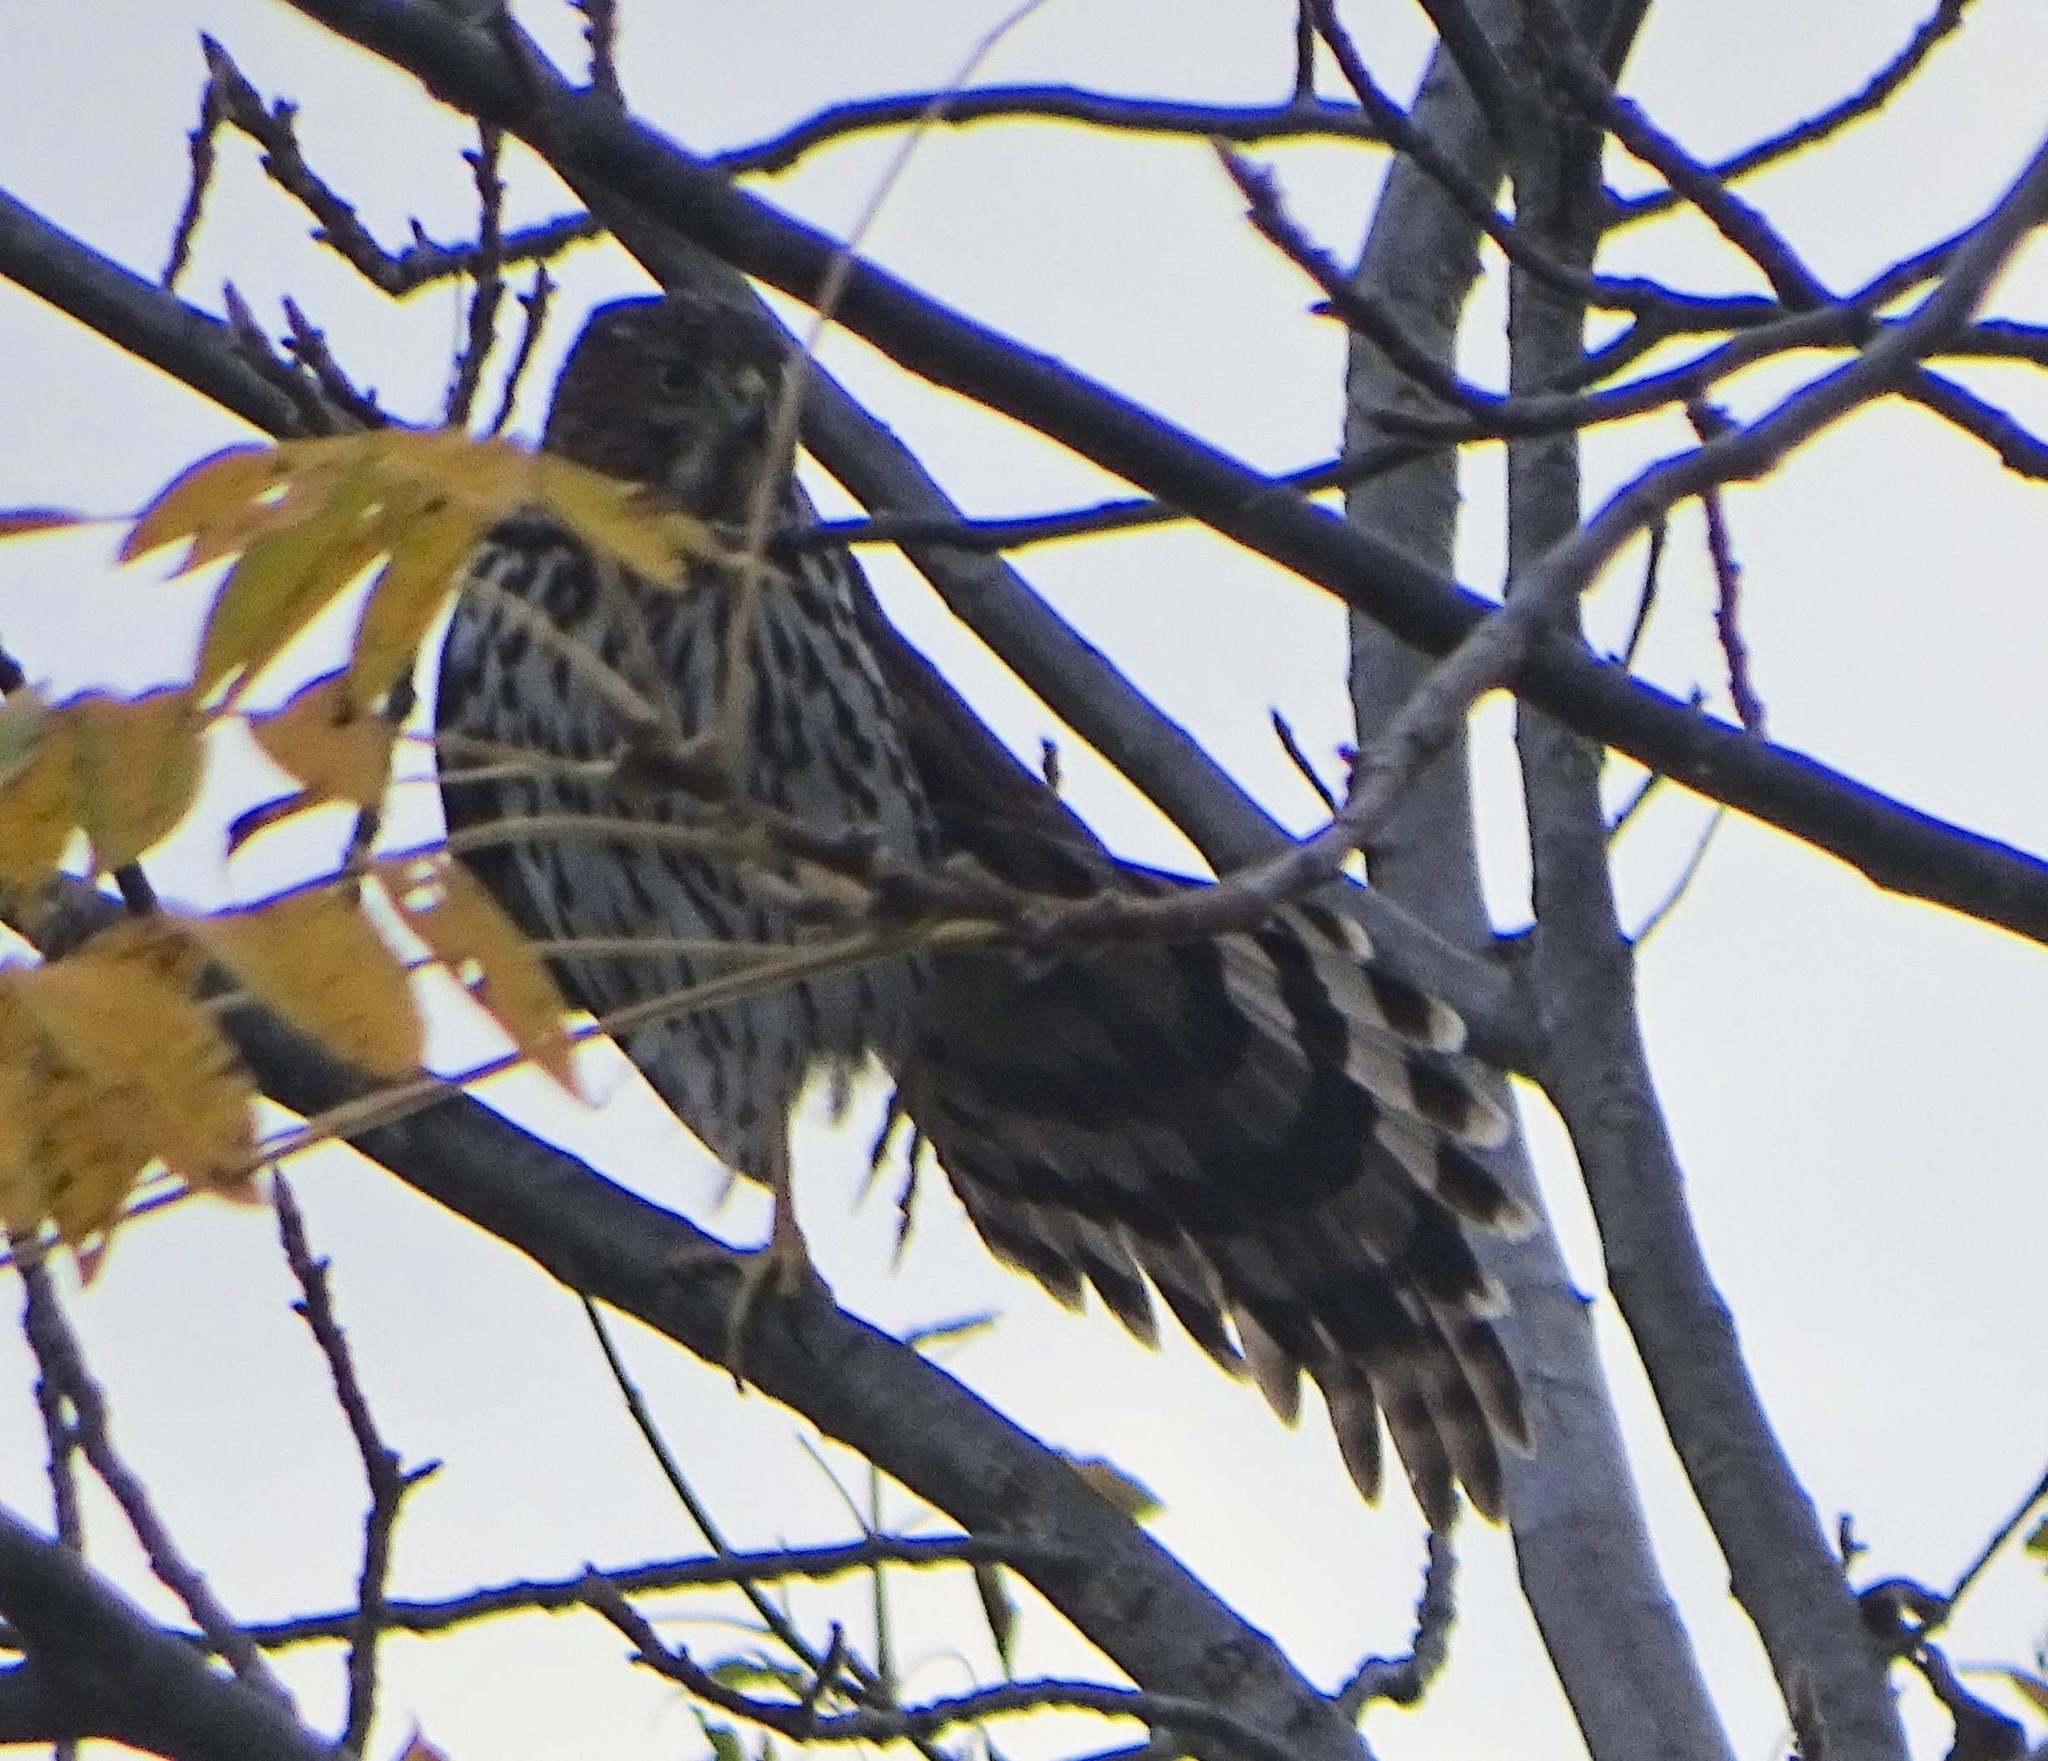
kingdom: Animalia
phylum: Chordata
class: Aves
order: Accipitriformes
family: Accipitridae
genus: Accipiter
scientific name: Accipiter cooperii
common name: Cooper's hawk
